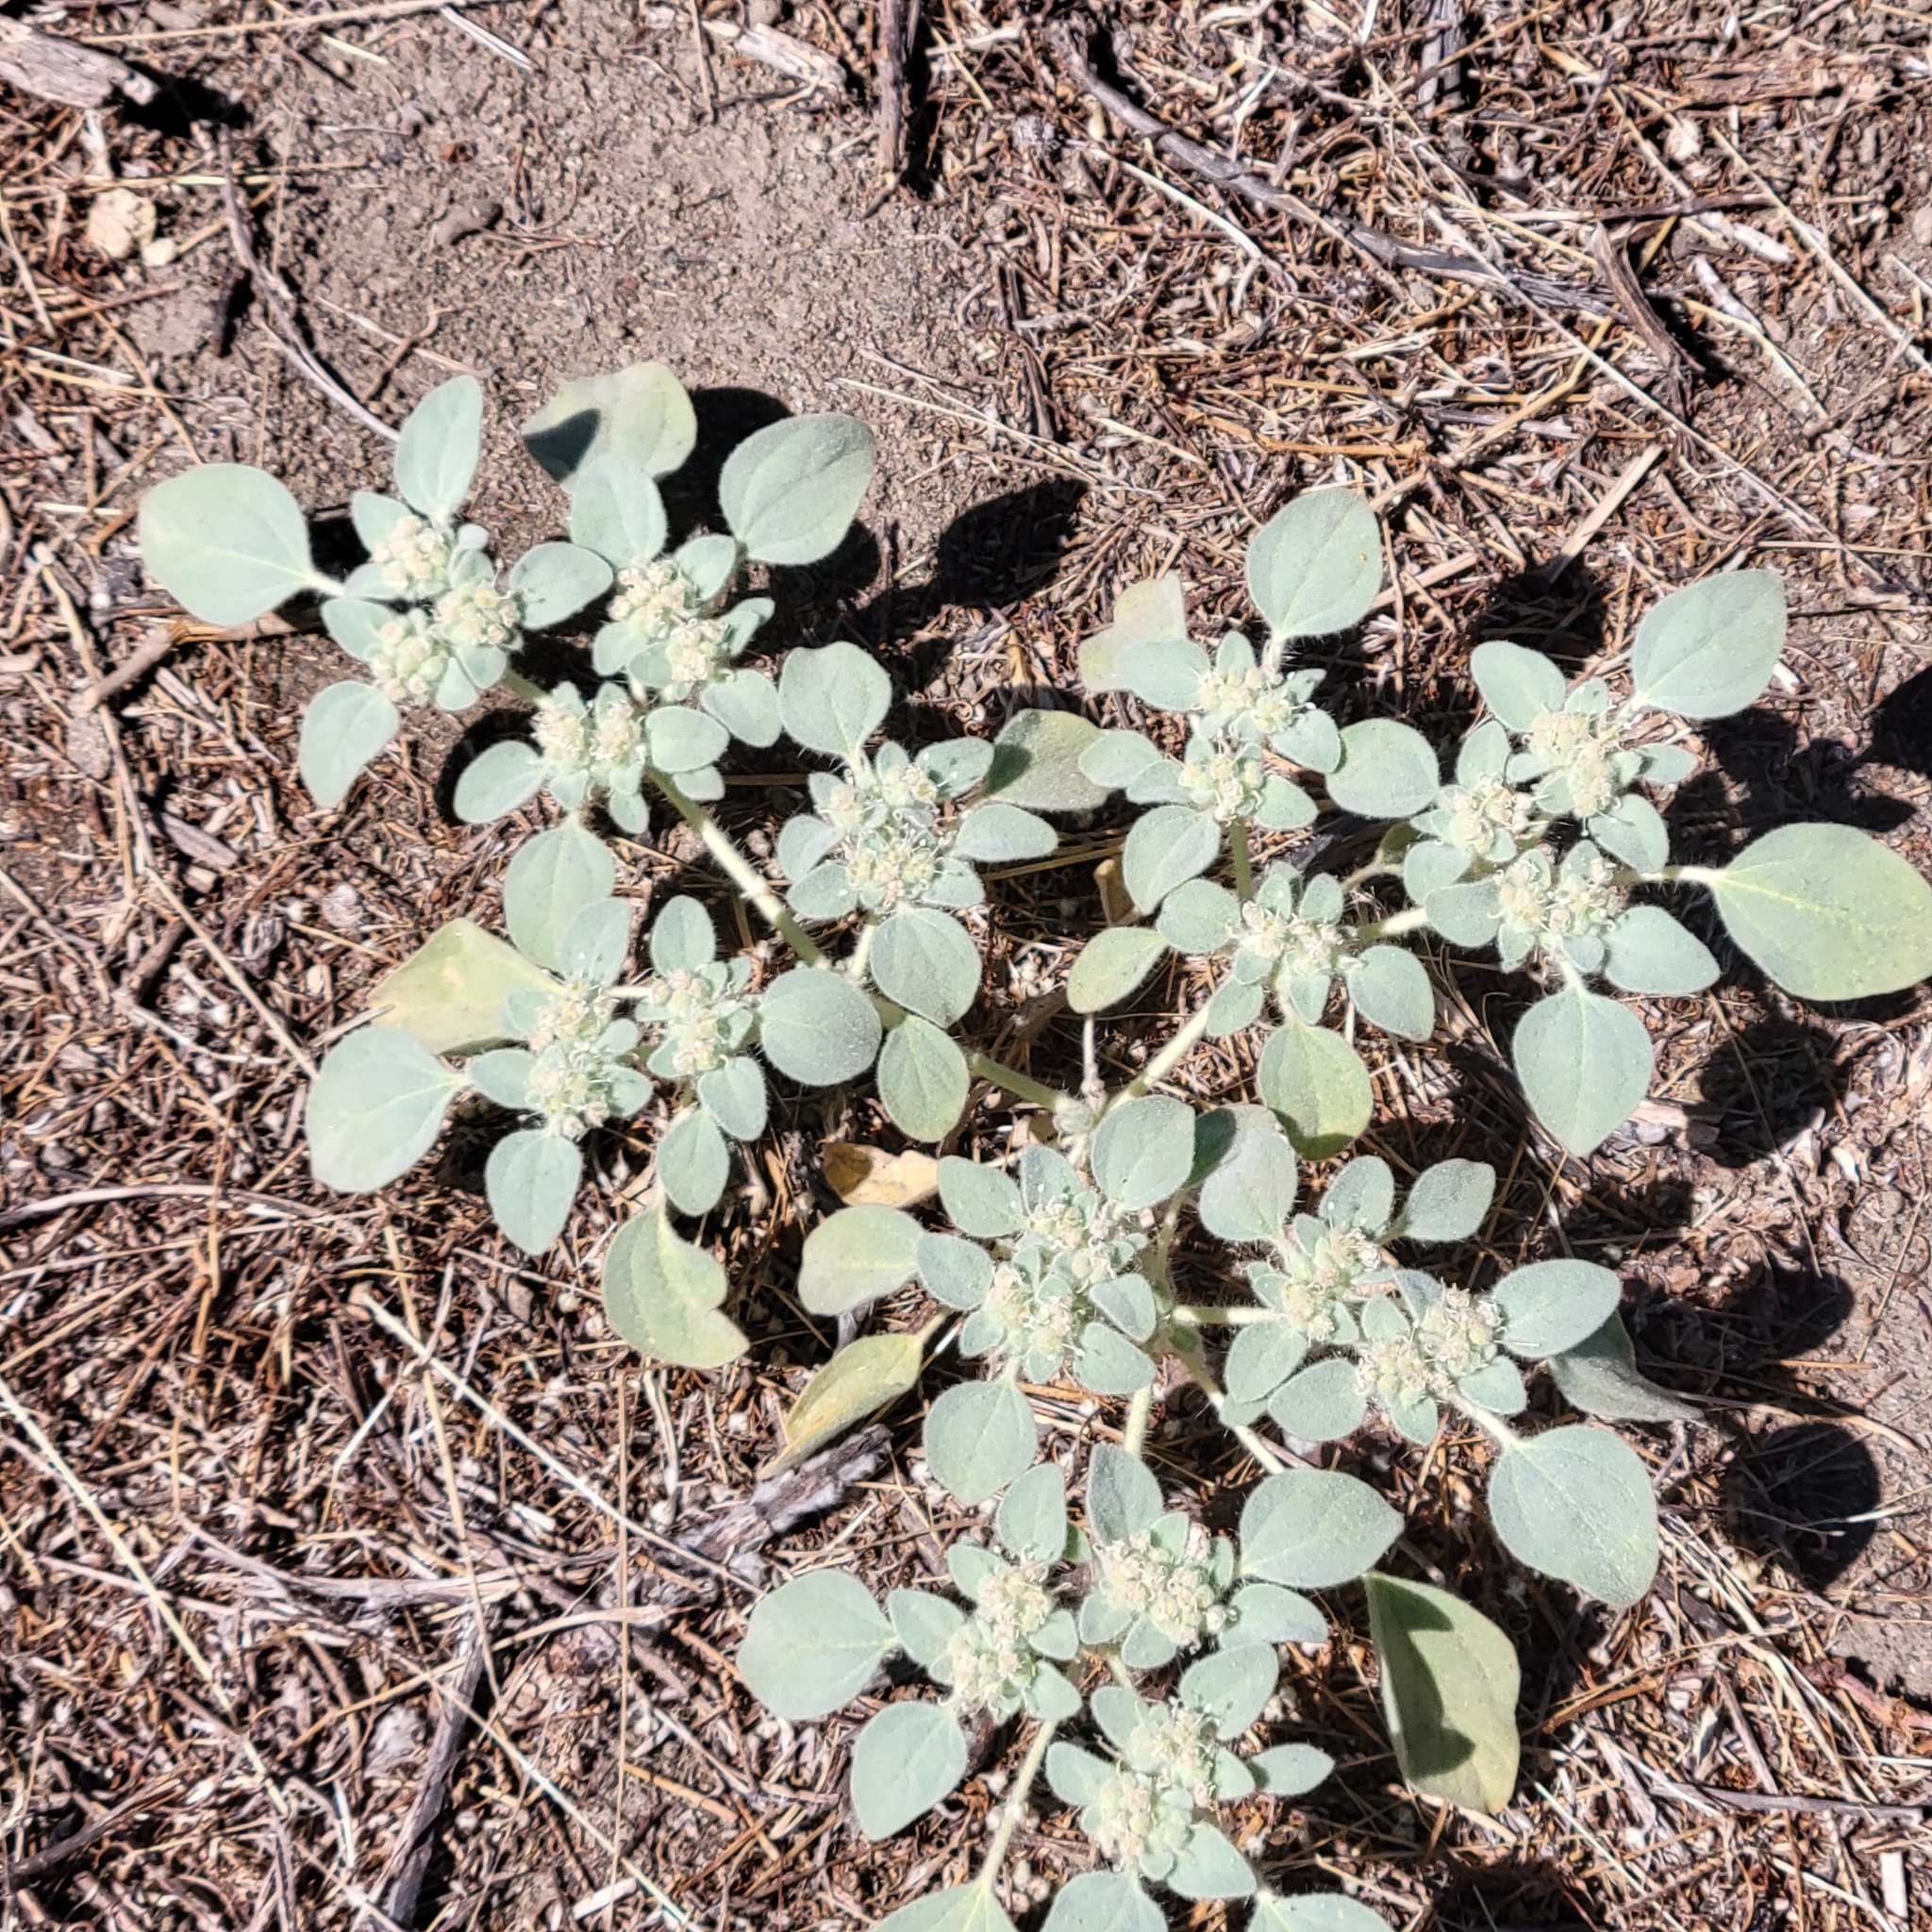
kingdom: Plantae
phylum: Tracheophyta
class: Magnoliopsida
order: Malpighiales
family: Euphorbiaceae
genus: Croton
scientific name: Croton setiger
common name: Dove weed
